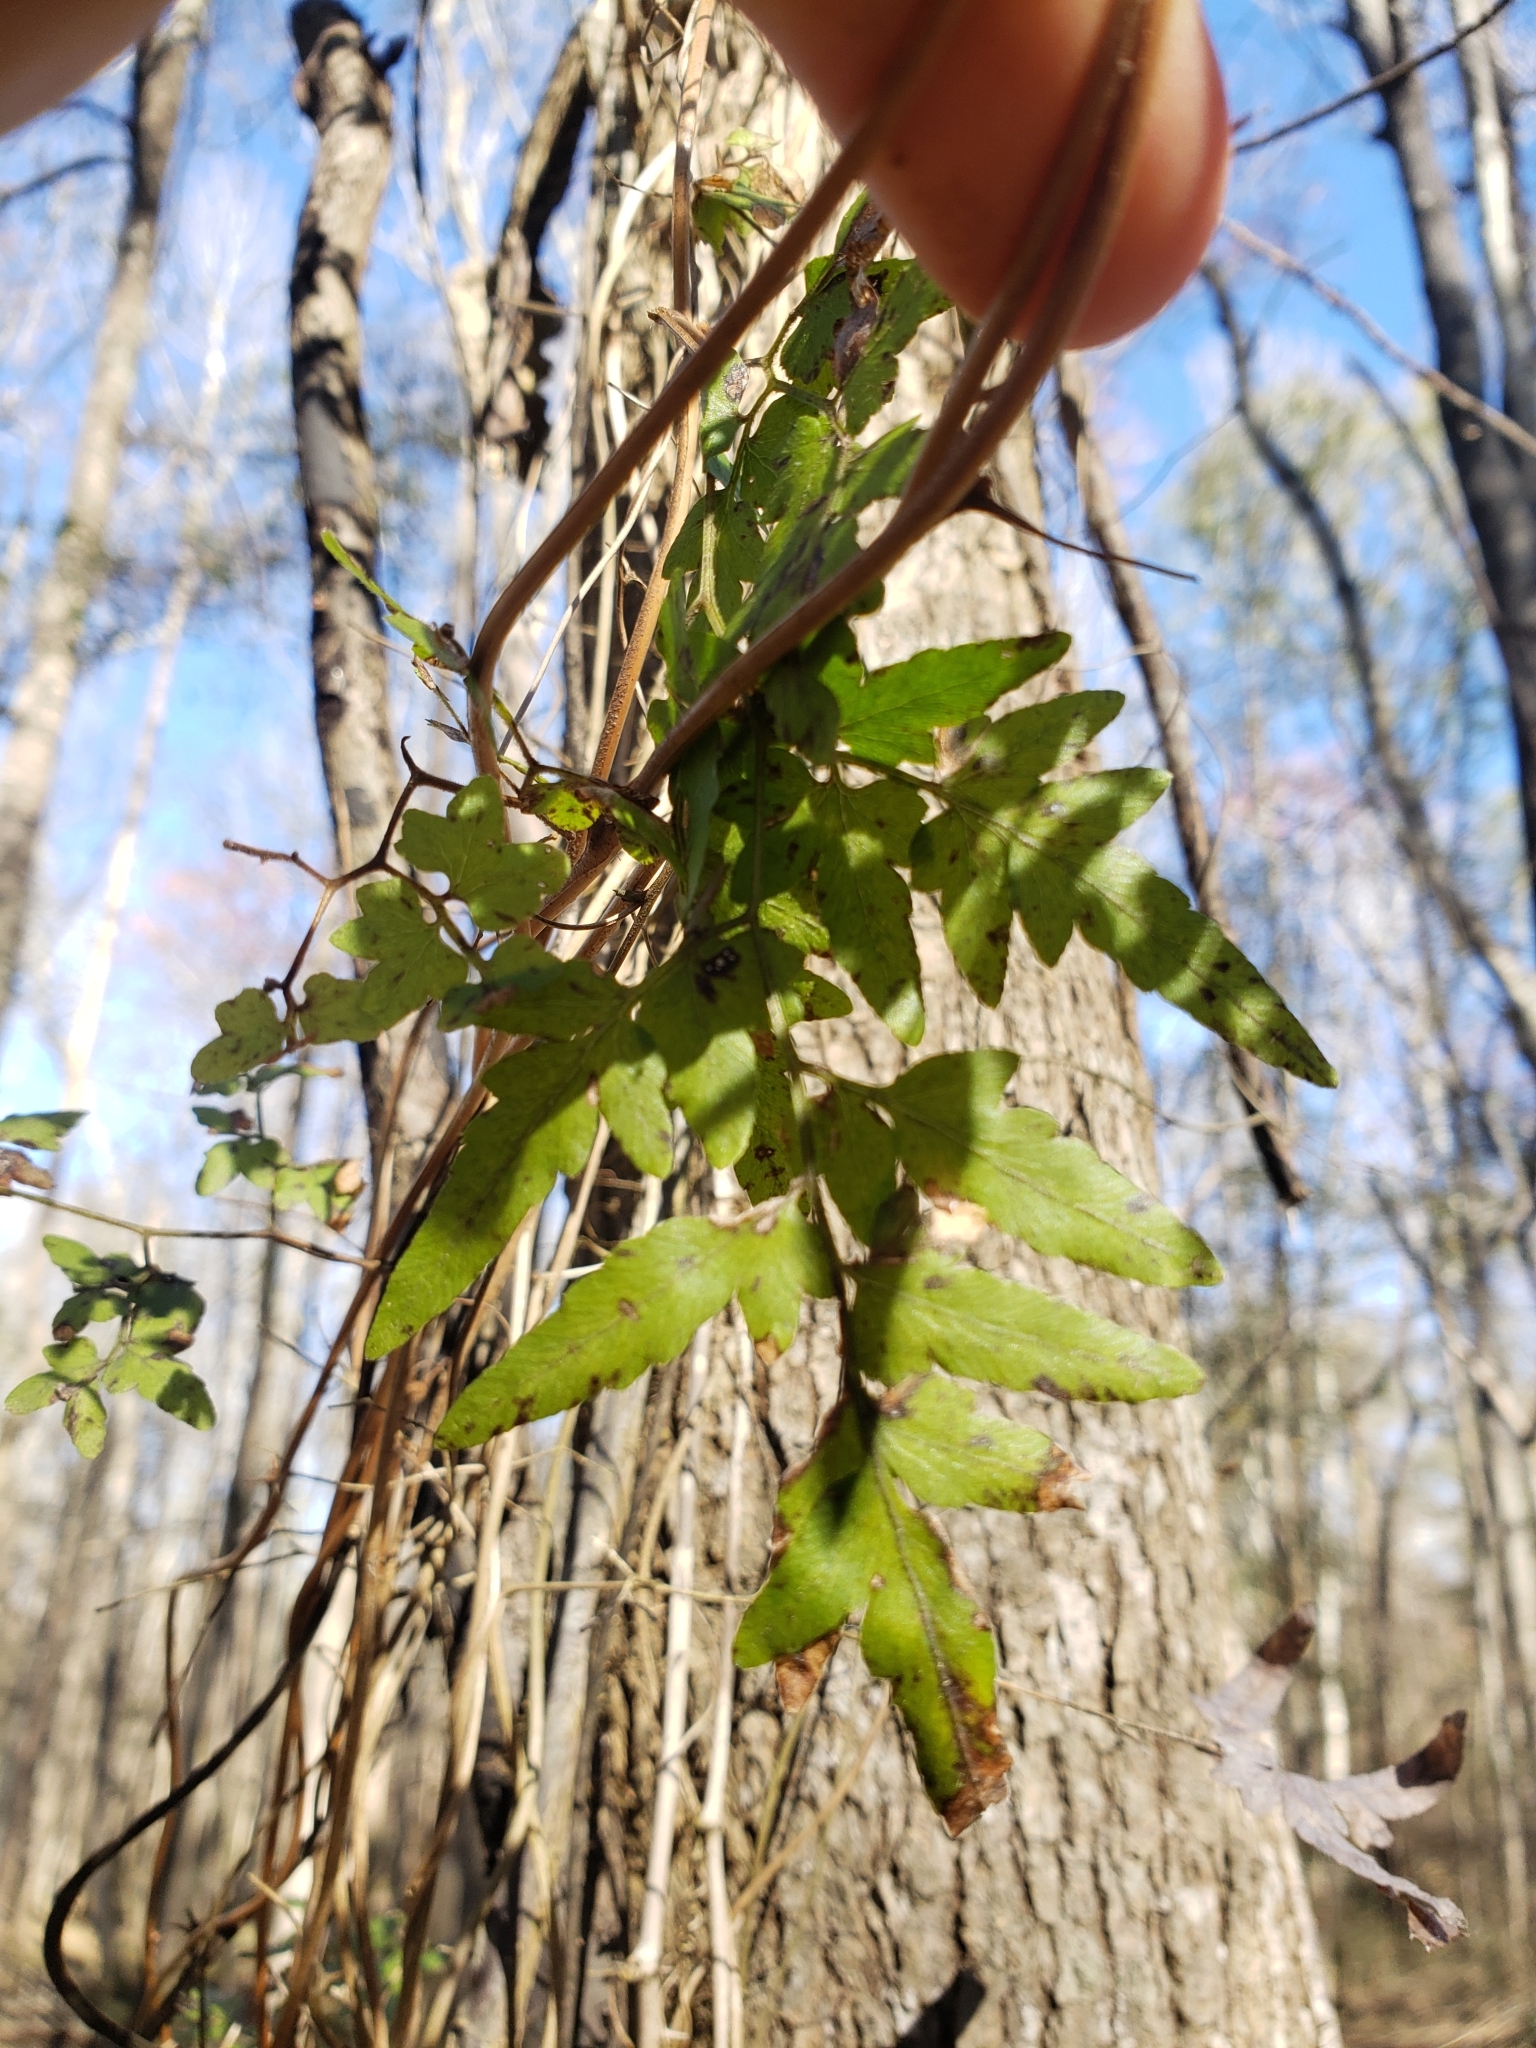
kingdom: Plantae
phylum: Tracheophyta
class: Polypodiopsida
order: Schizaeales
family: Lygodiaceae
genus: Lygodium
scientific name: Lygodium japonicum
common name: Japanese climbing fern
